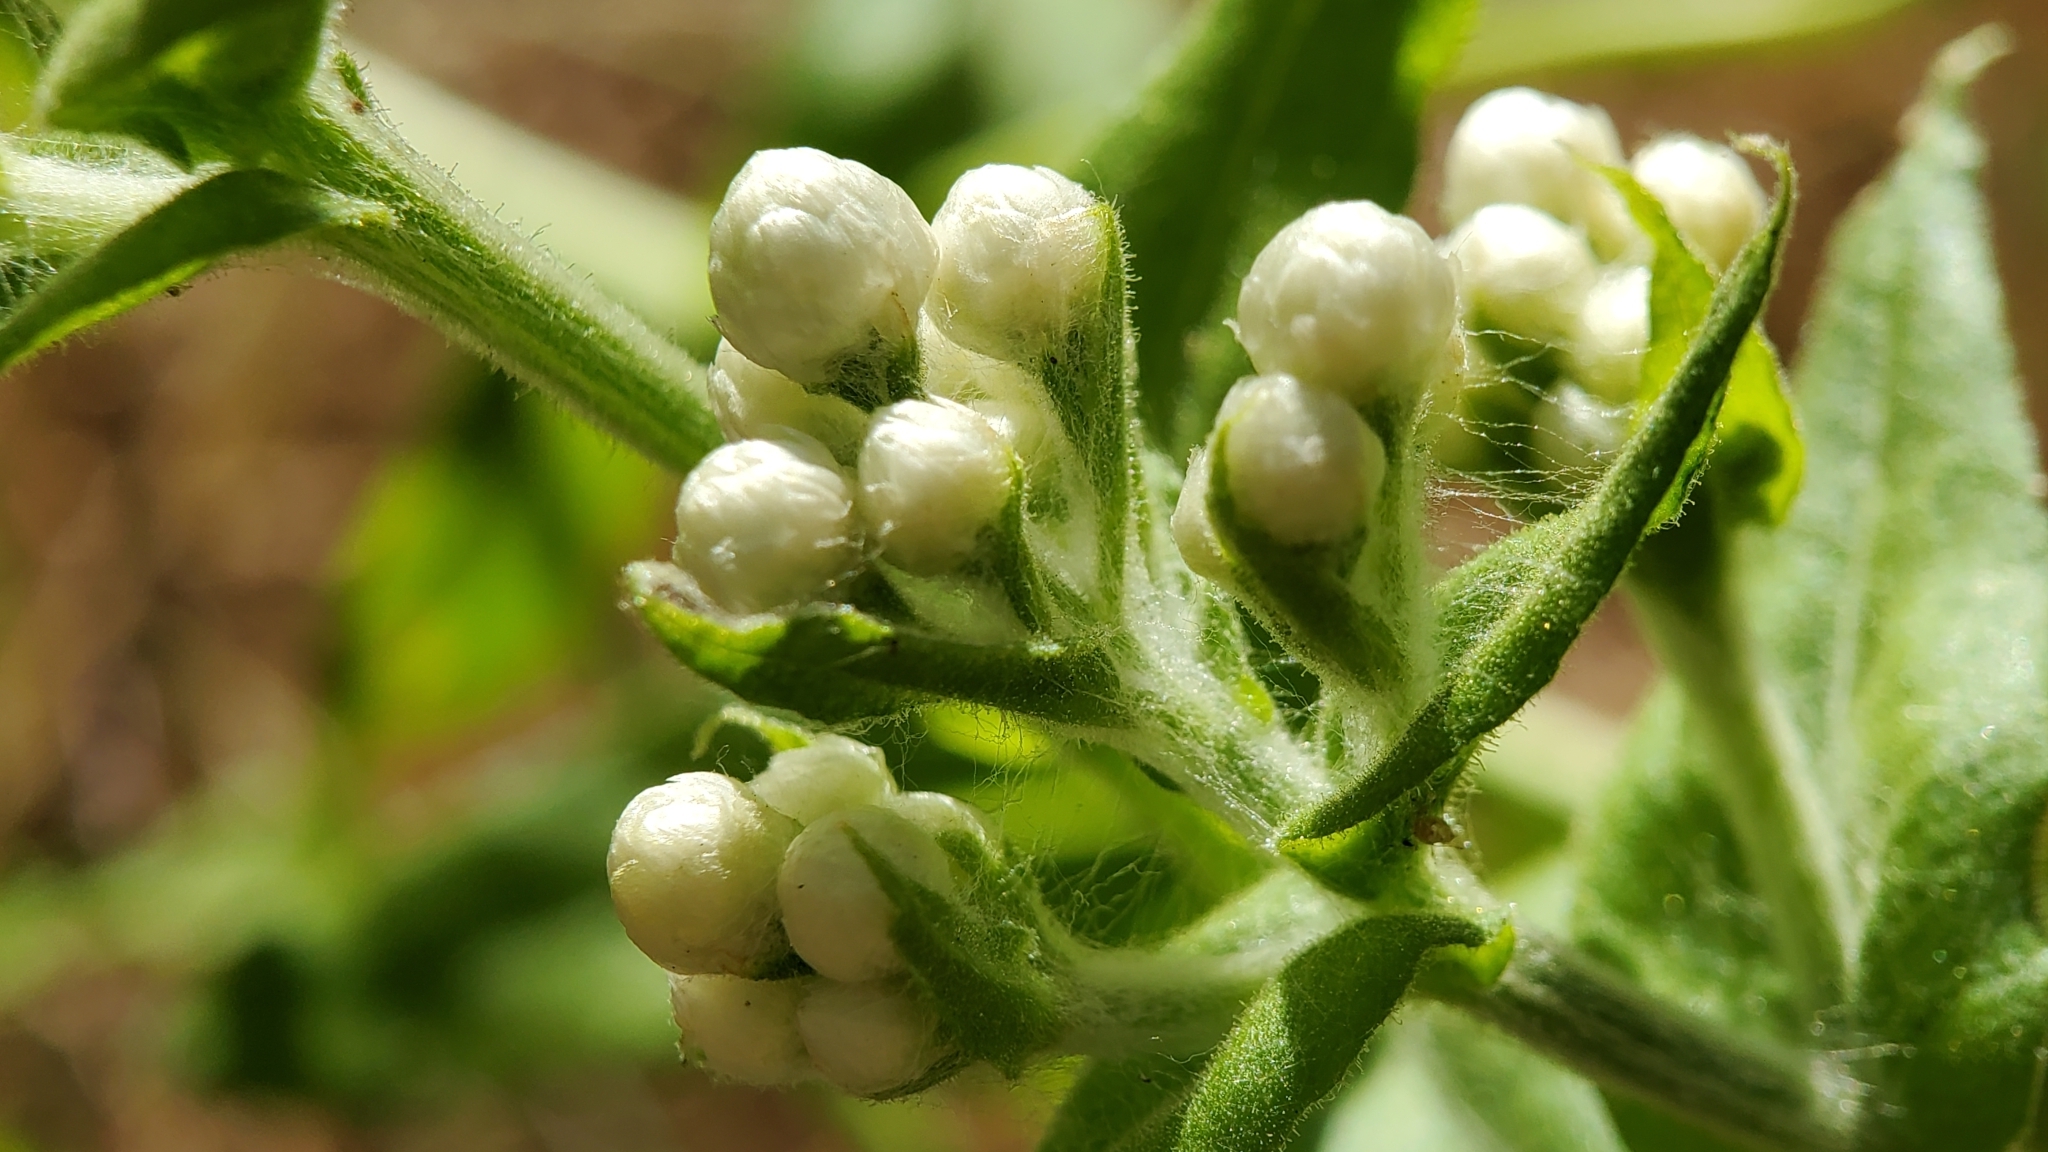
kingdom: Plantae
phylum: Tracheophyta
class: Magnoliopsida
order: Asterales
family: Asteraceae
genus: Pseudognaphalium
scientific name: Pseudognaphalium californicum
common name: California rabbit-tobacco
